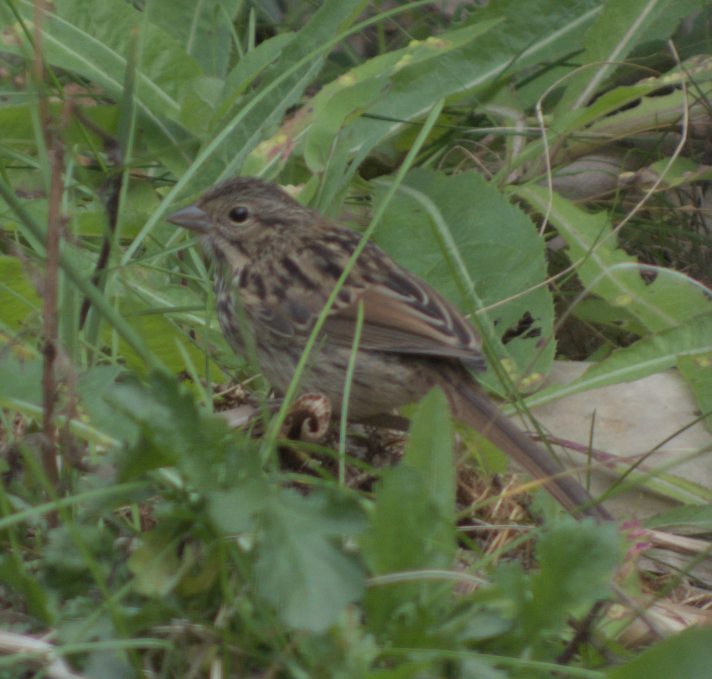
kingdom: Animalia
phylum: Chordata
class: Aves
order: Passeriformes
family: Passerellidae
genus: Melospiza
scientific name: Melospiza melodia
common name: Song sparrow
